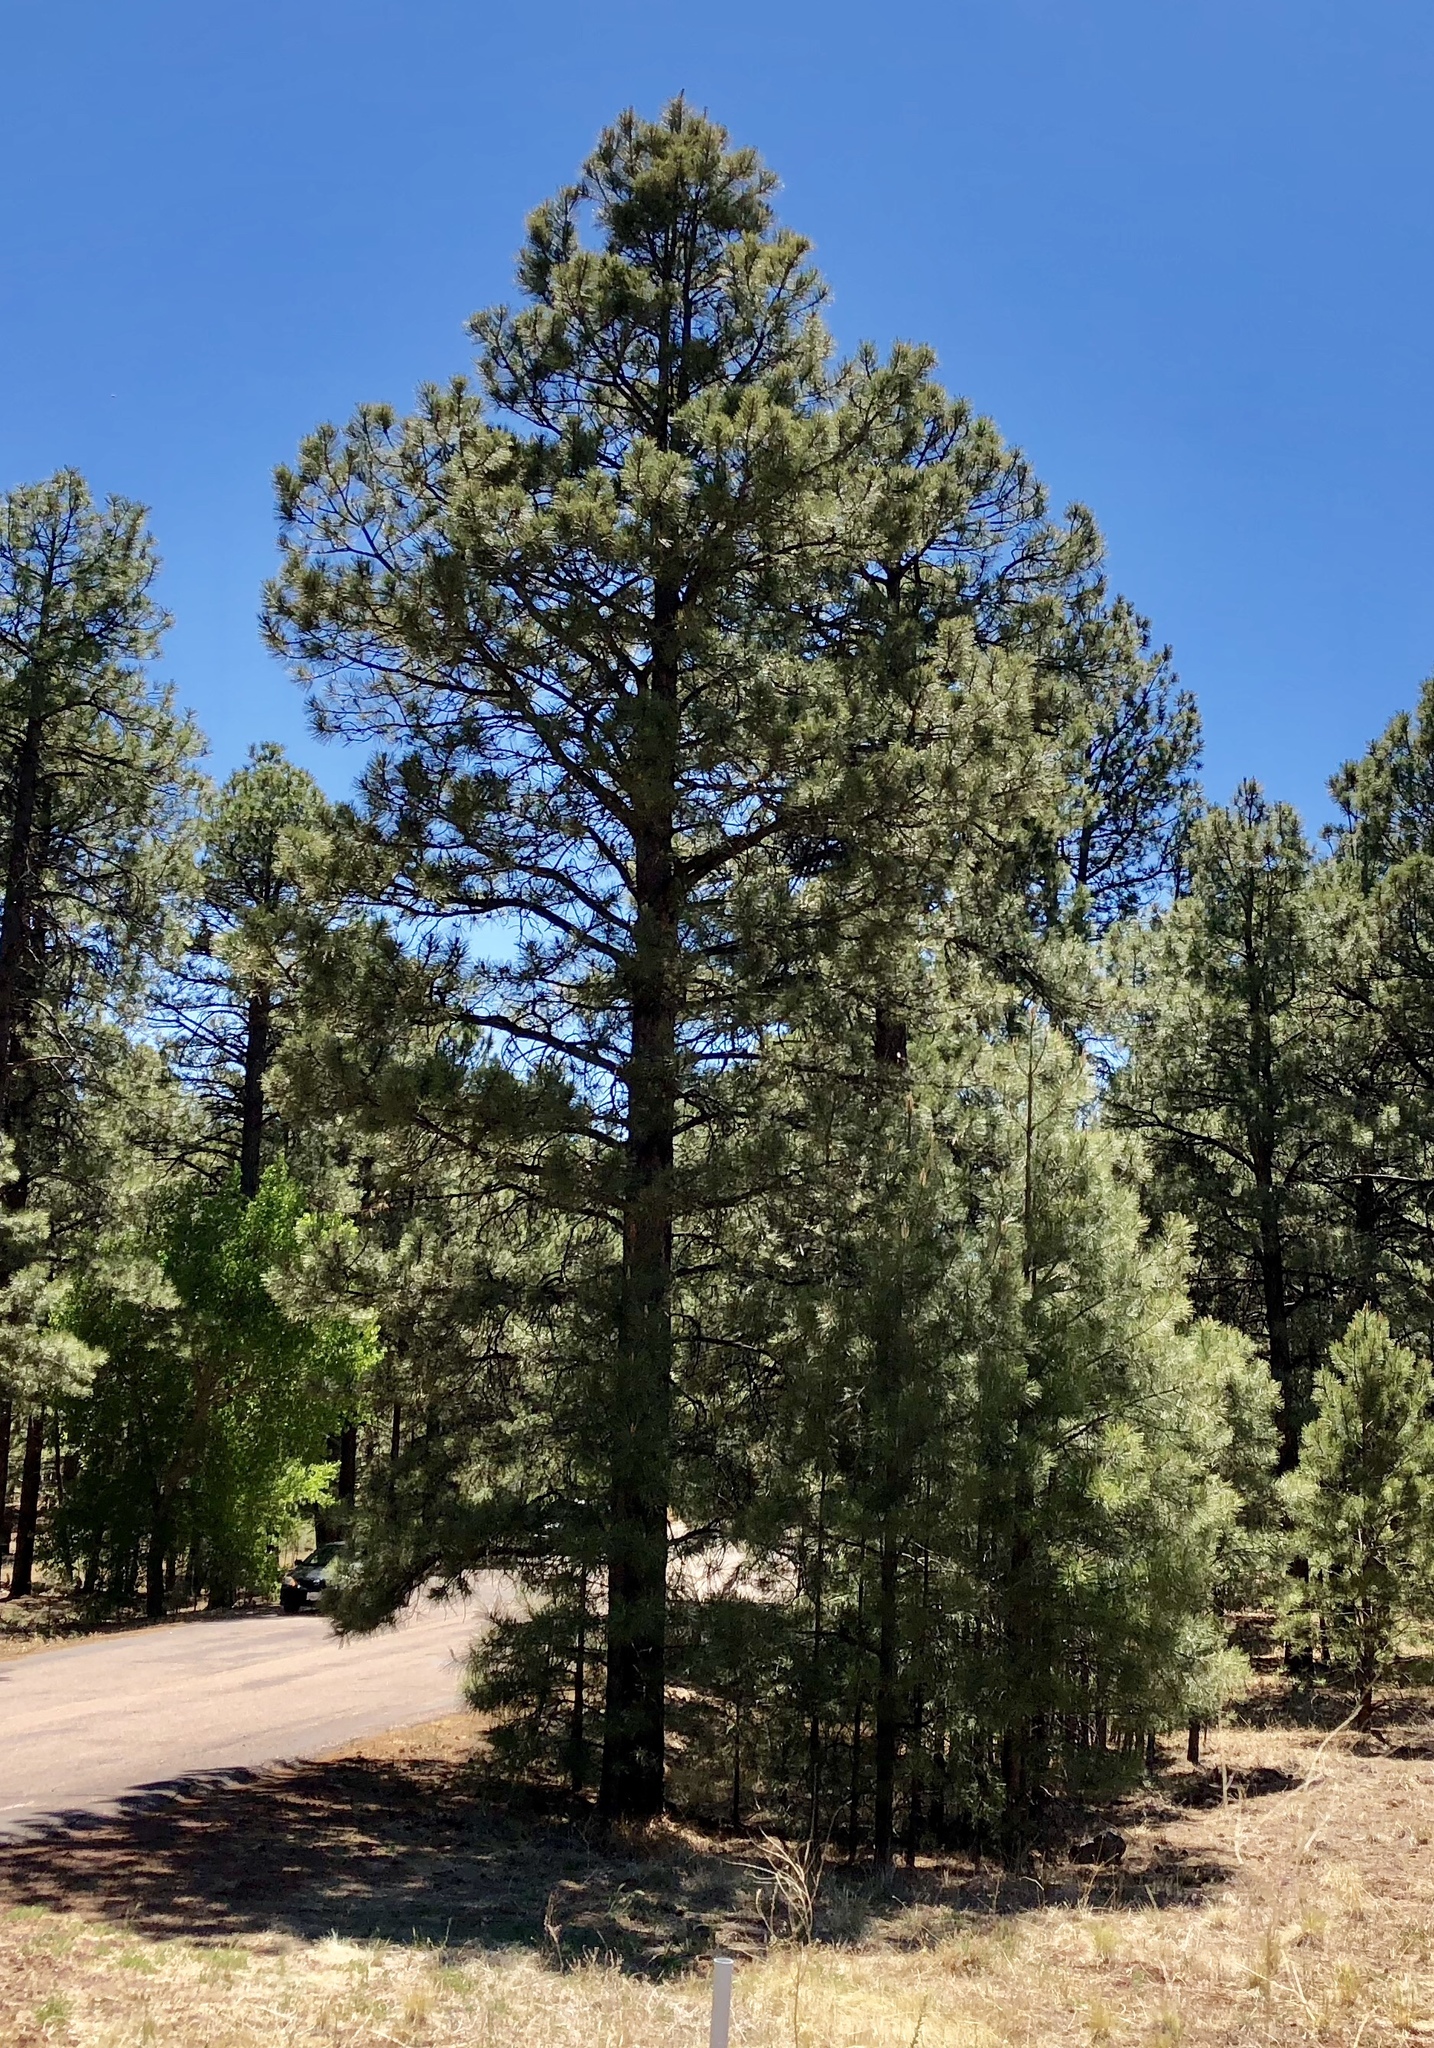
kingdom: Plantae
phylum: Tracheophyta
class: Pinopsida
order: Pinales
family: Pinaceae
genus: Pinus
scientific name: Pinus ponderosa
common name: Western yellow-pine
